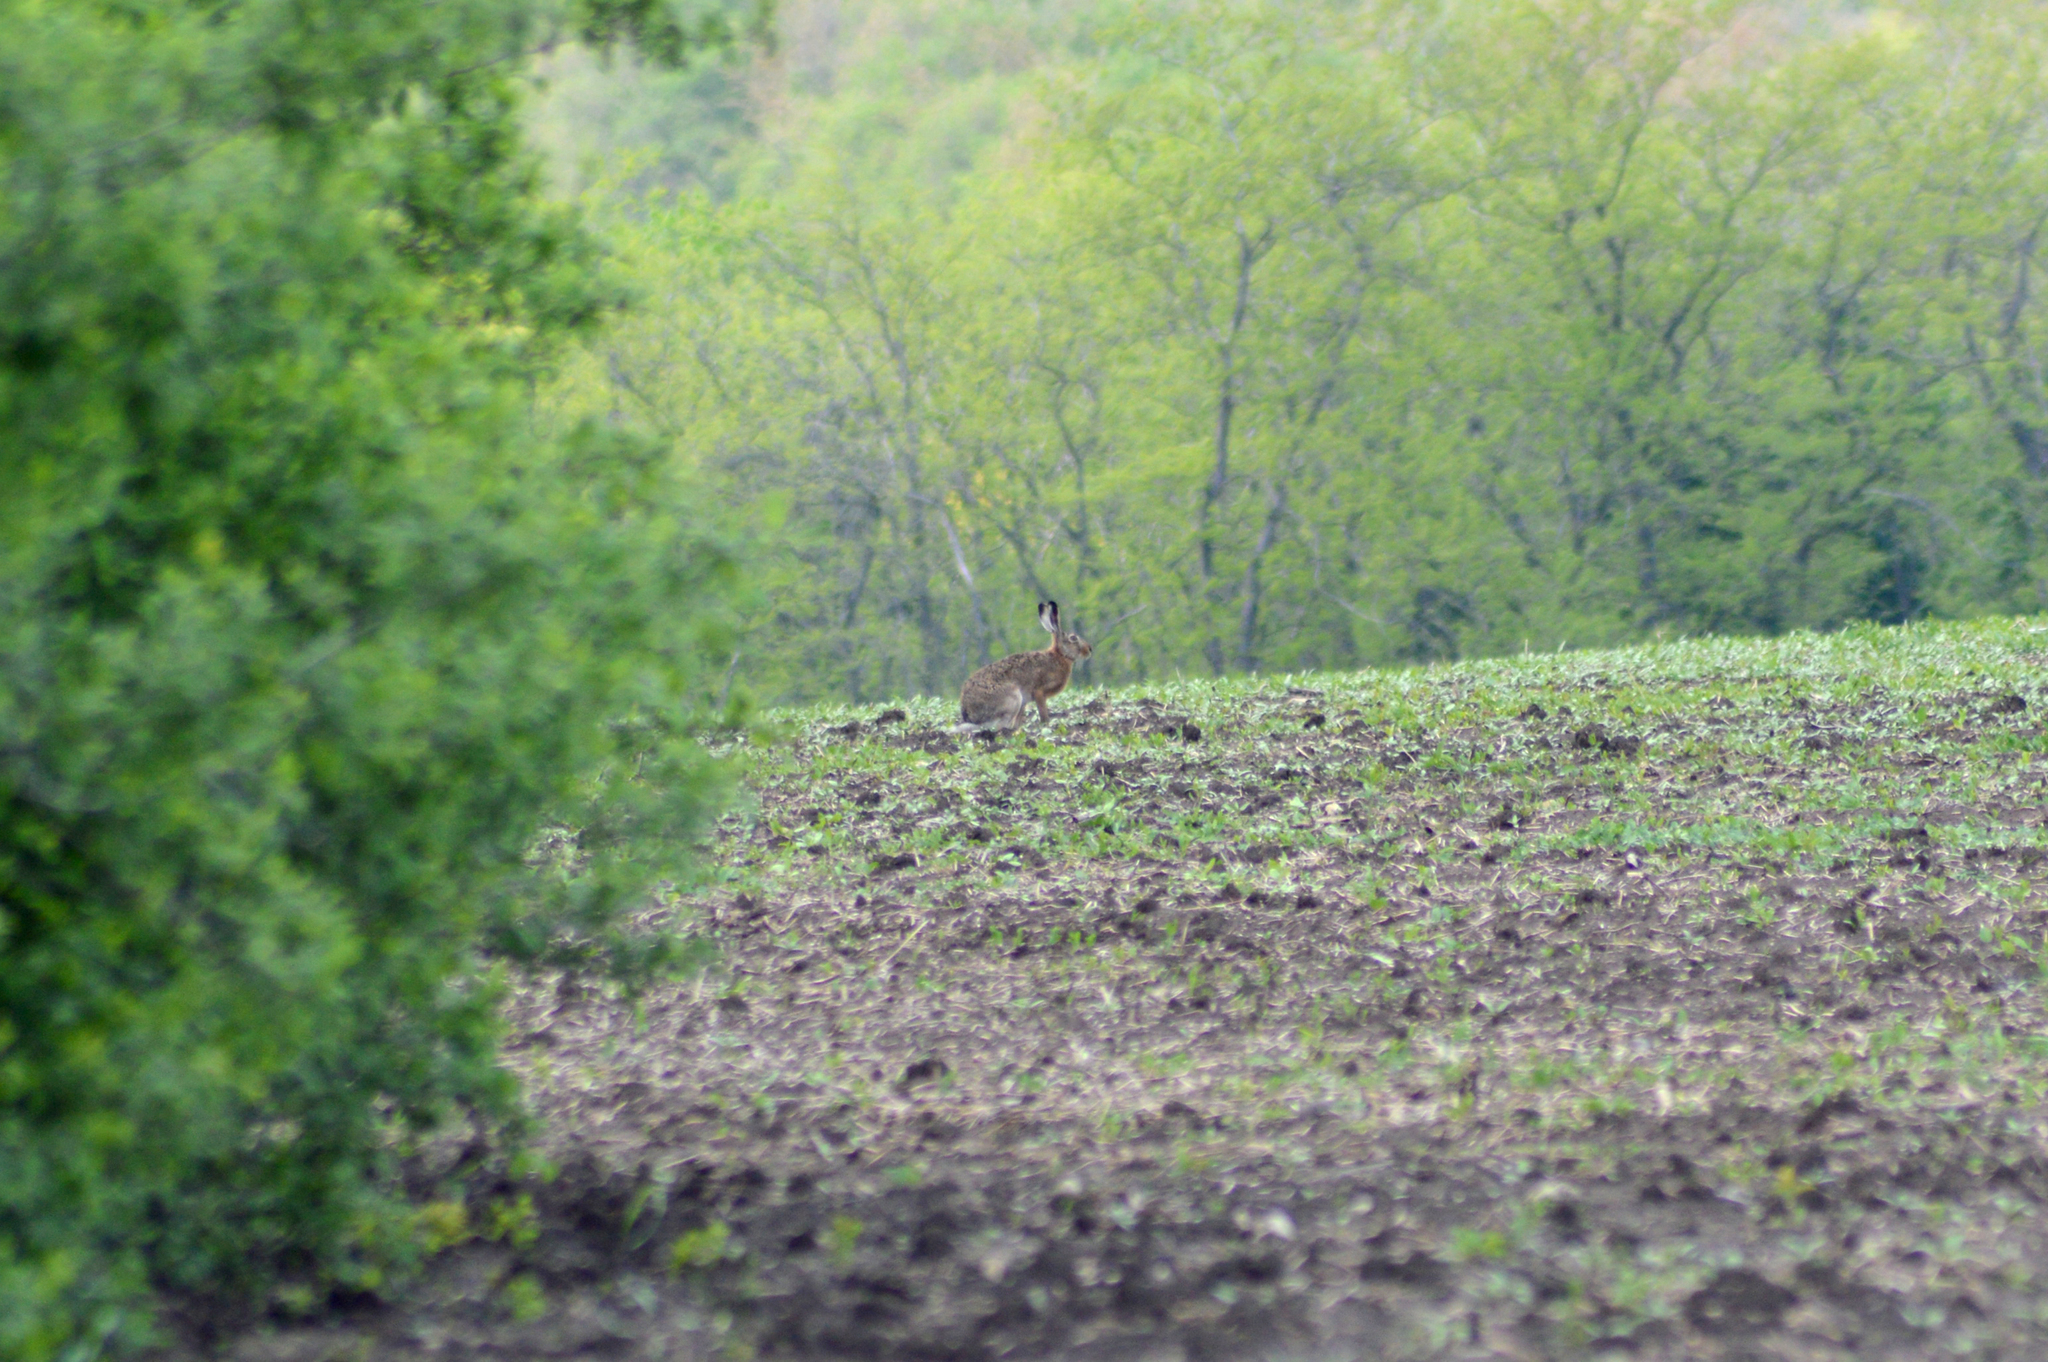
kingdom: Animalia
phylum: Chordata
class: Mammalia
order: Lagomorpha
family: Leporidae
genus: Lepus
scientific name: Lepus europaeus
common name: European hare
